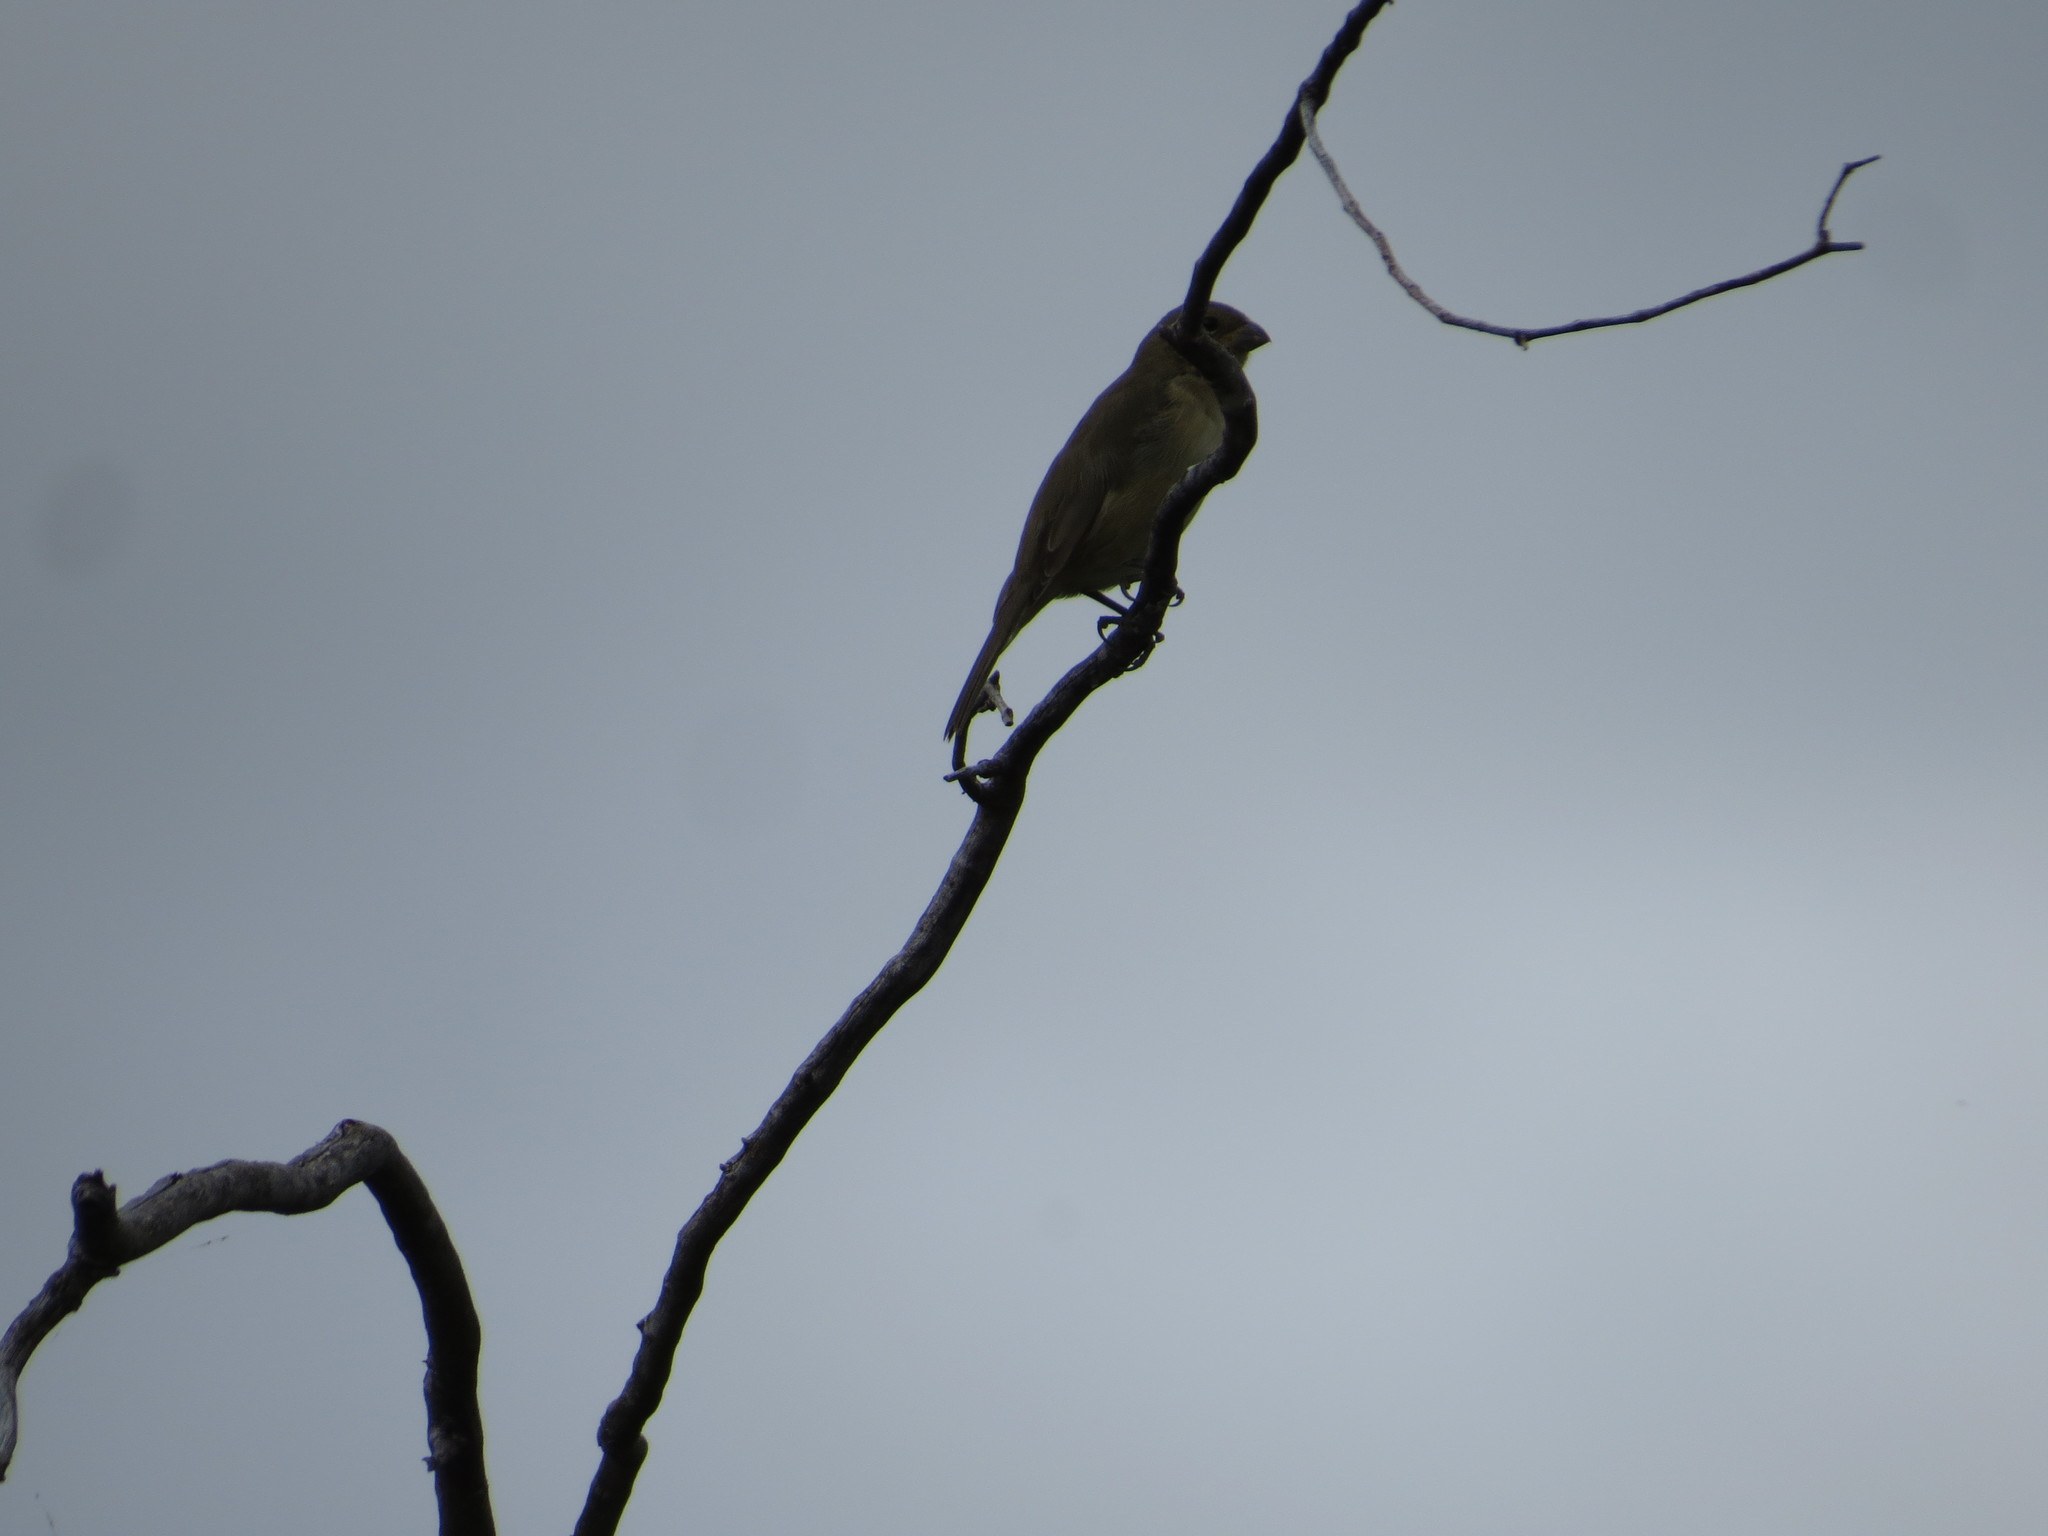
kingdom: Animalia
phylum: Chordata
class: Aves
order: Passeriformes
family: Thraupidae
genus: Sporophila
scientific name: Sporophila caerulescens
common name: Double-collared seedeater
